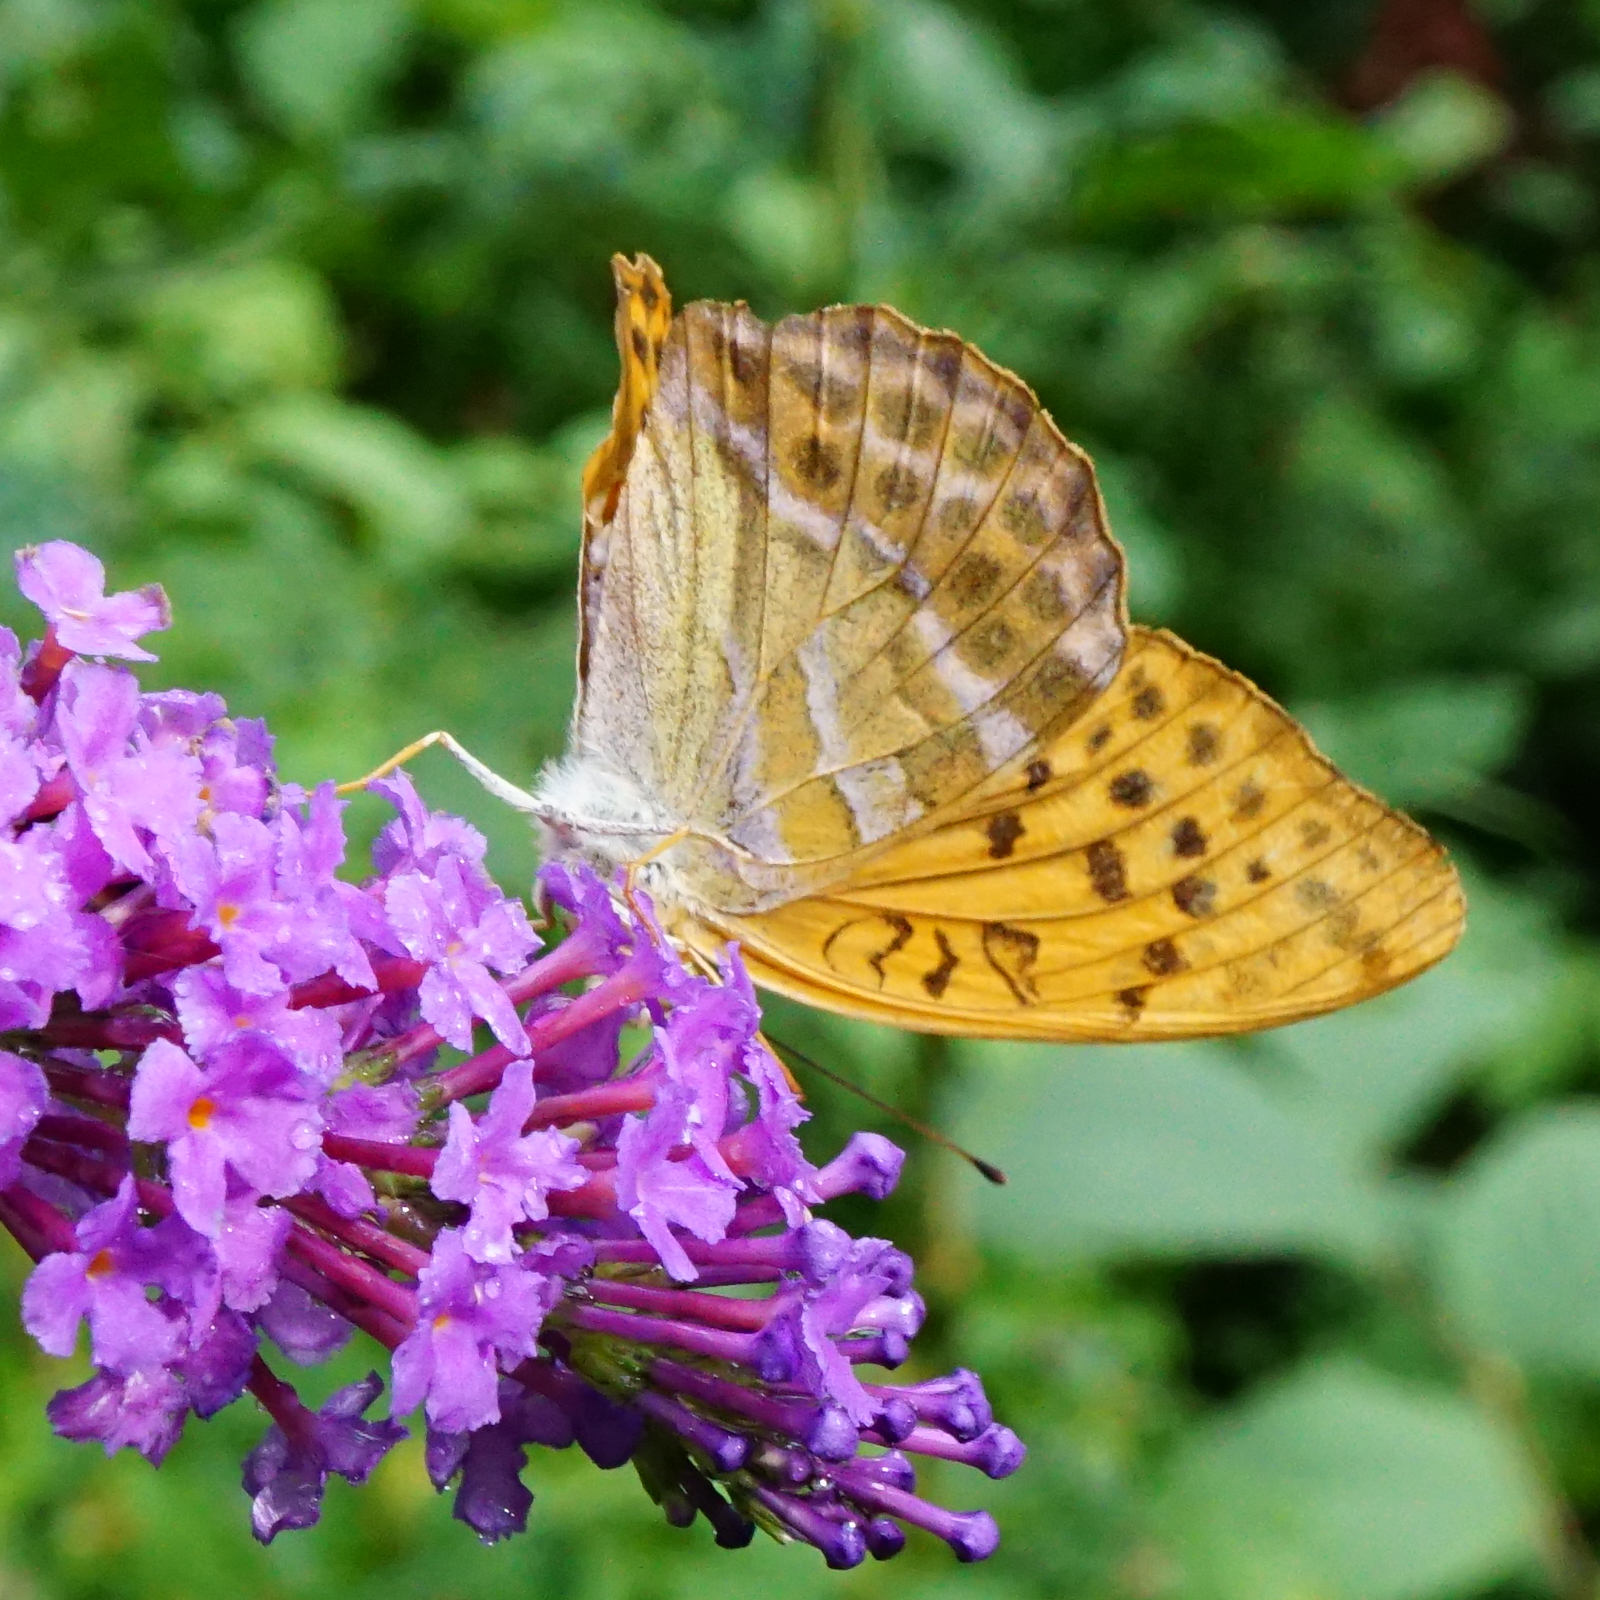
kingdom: Animalia
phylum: Arthropoda
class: Insecta
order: Lepidoptera
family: Nymphalidae
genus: Argynnis
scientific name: Argynnis paphia
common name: Silver-washed fritillary
